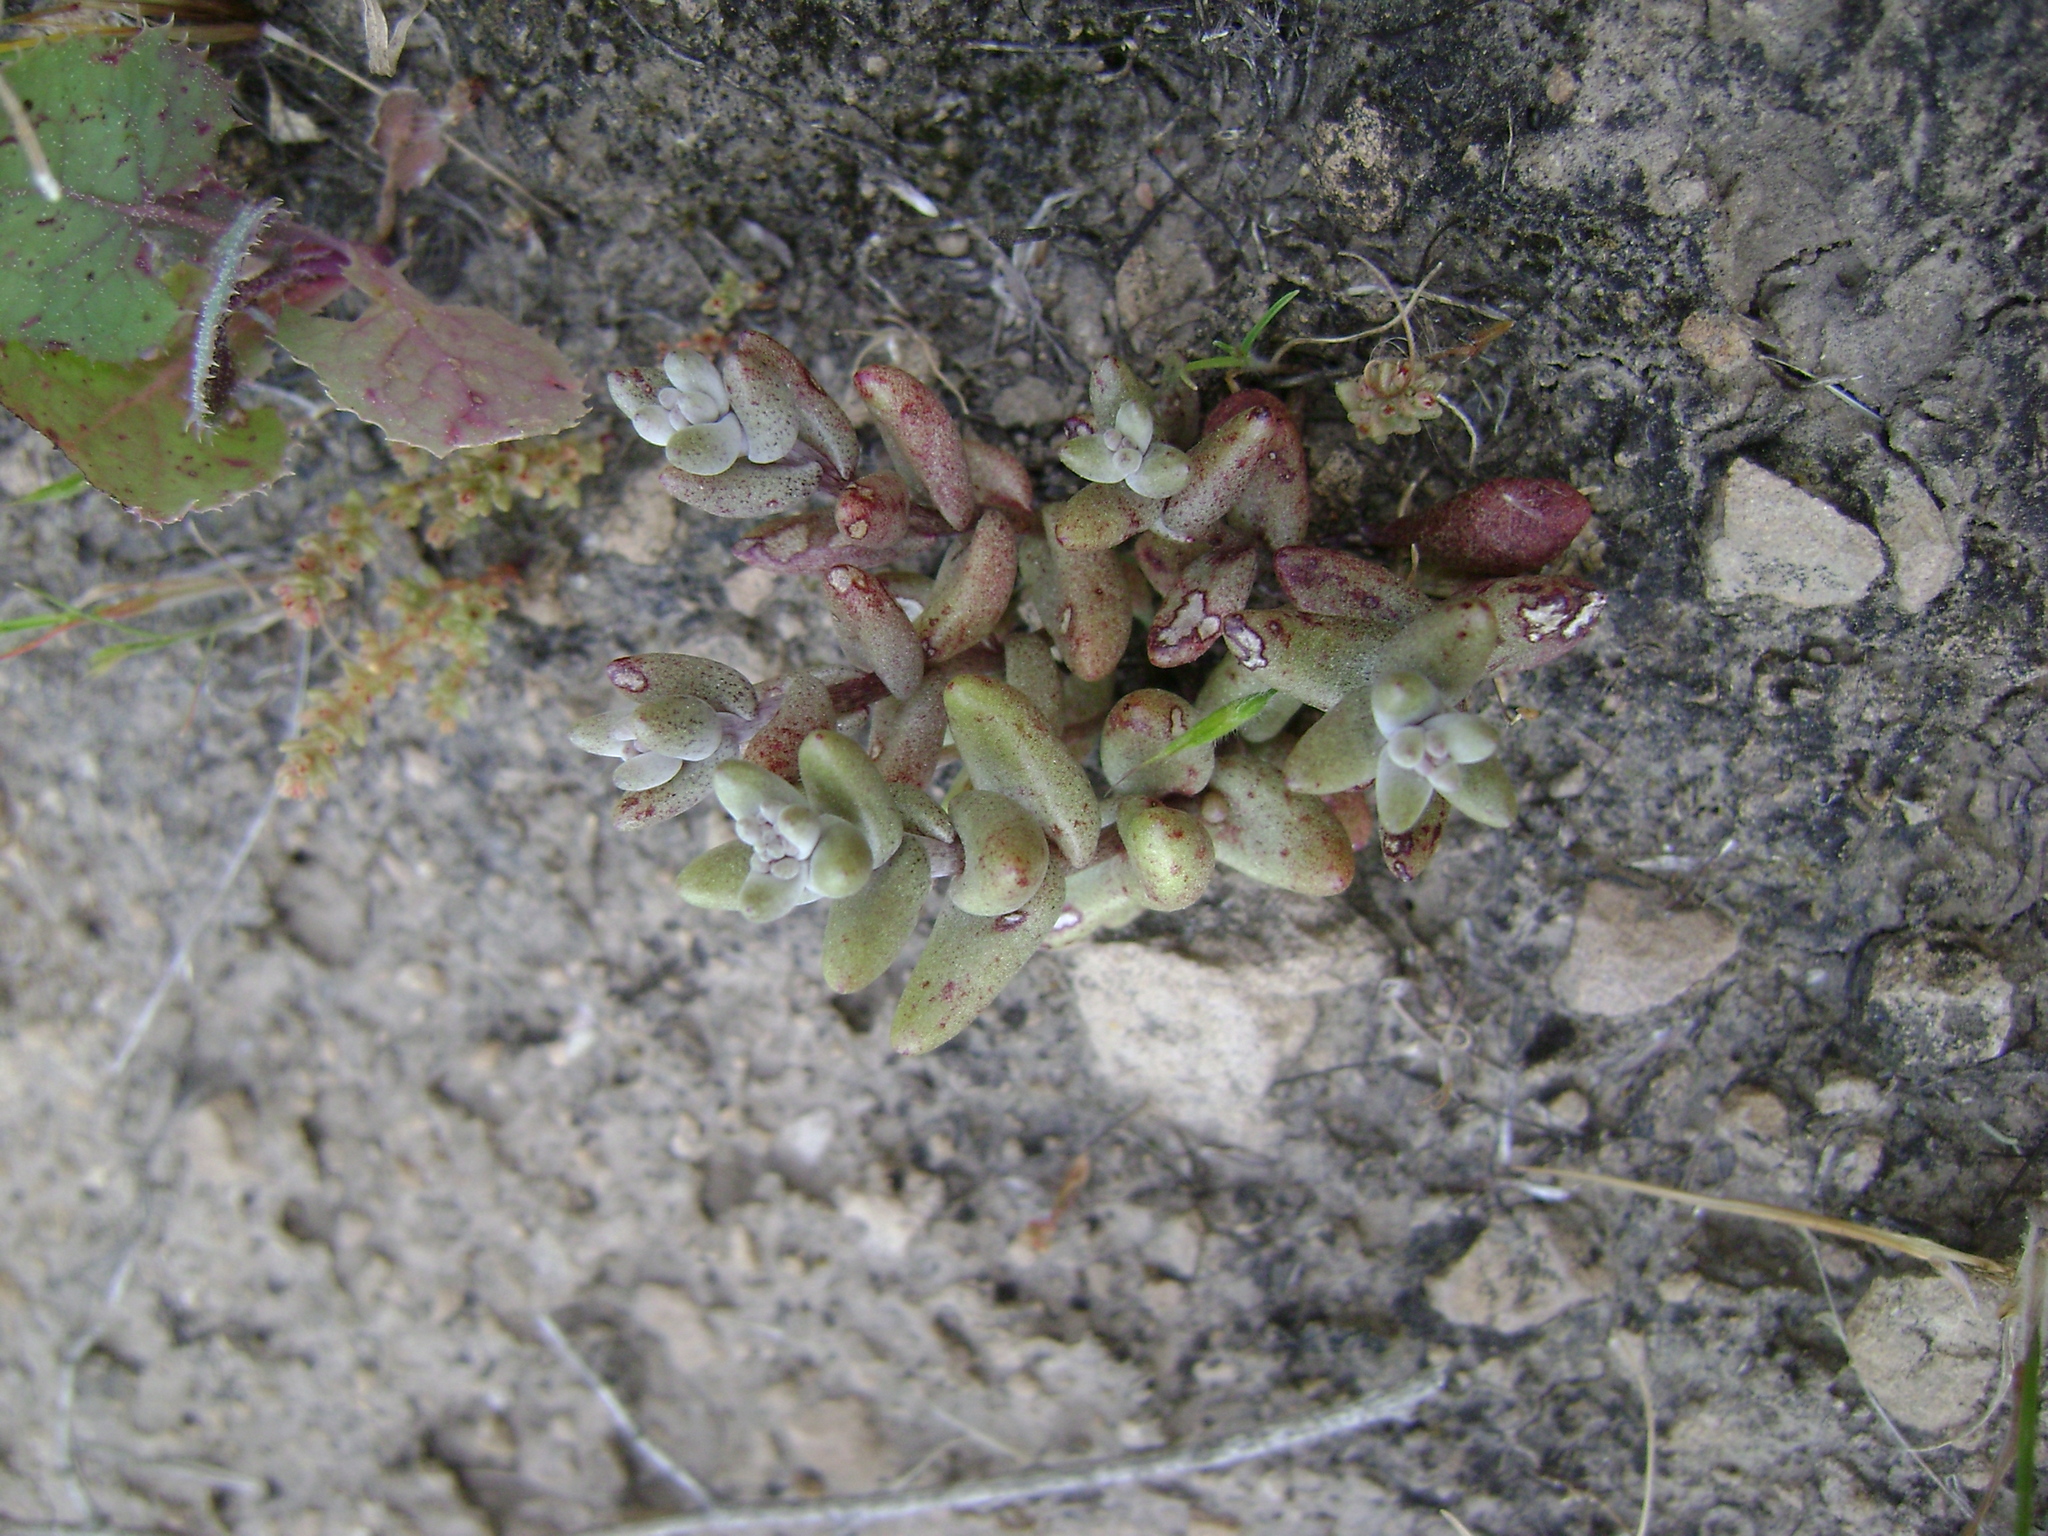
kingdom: Plantae
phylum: Tracheophyta
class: Magnoliopsida
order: Saxifragales
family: Crassulaceae
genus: Dudleya
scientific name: Dudleya blochmaniae
